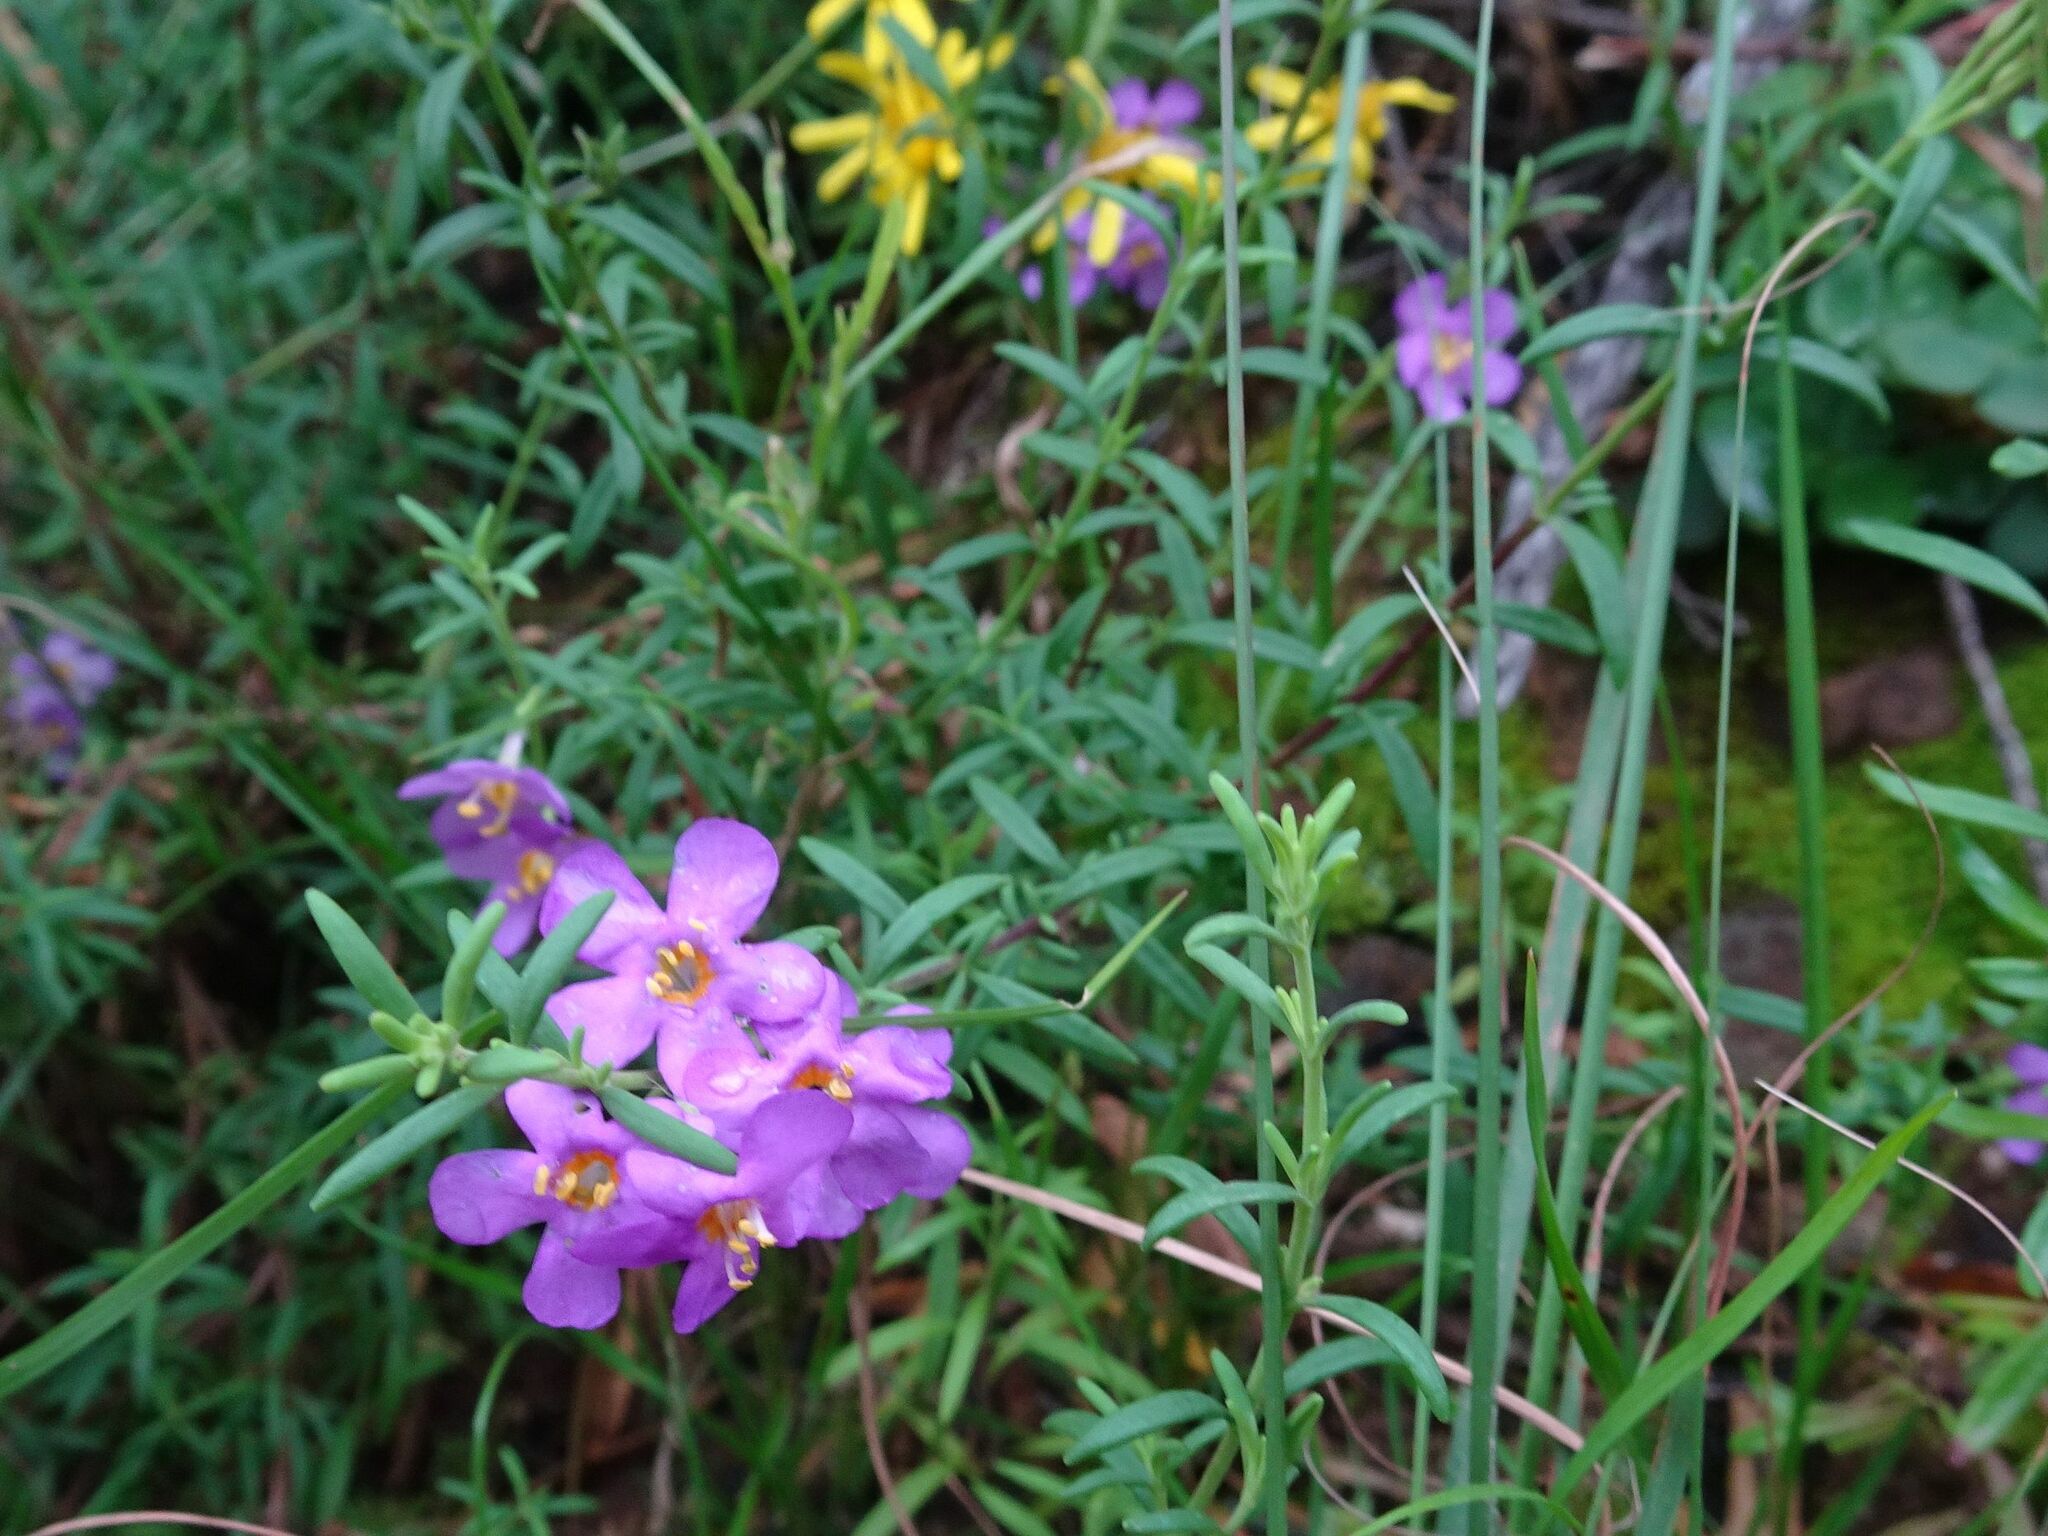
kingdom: Plantae
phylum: Tracheophyta
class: Magnoliopsida
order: Lamiales
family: Scrophulariaceae
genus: Chaenostoma
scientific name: Chaenostoma revolutum
